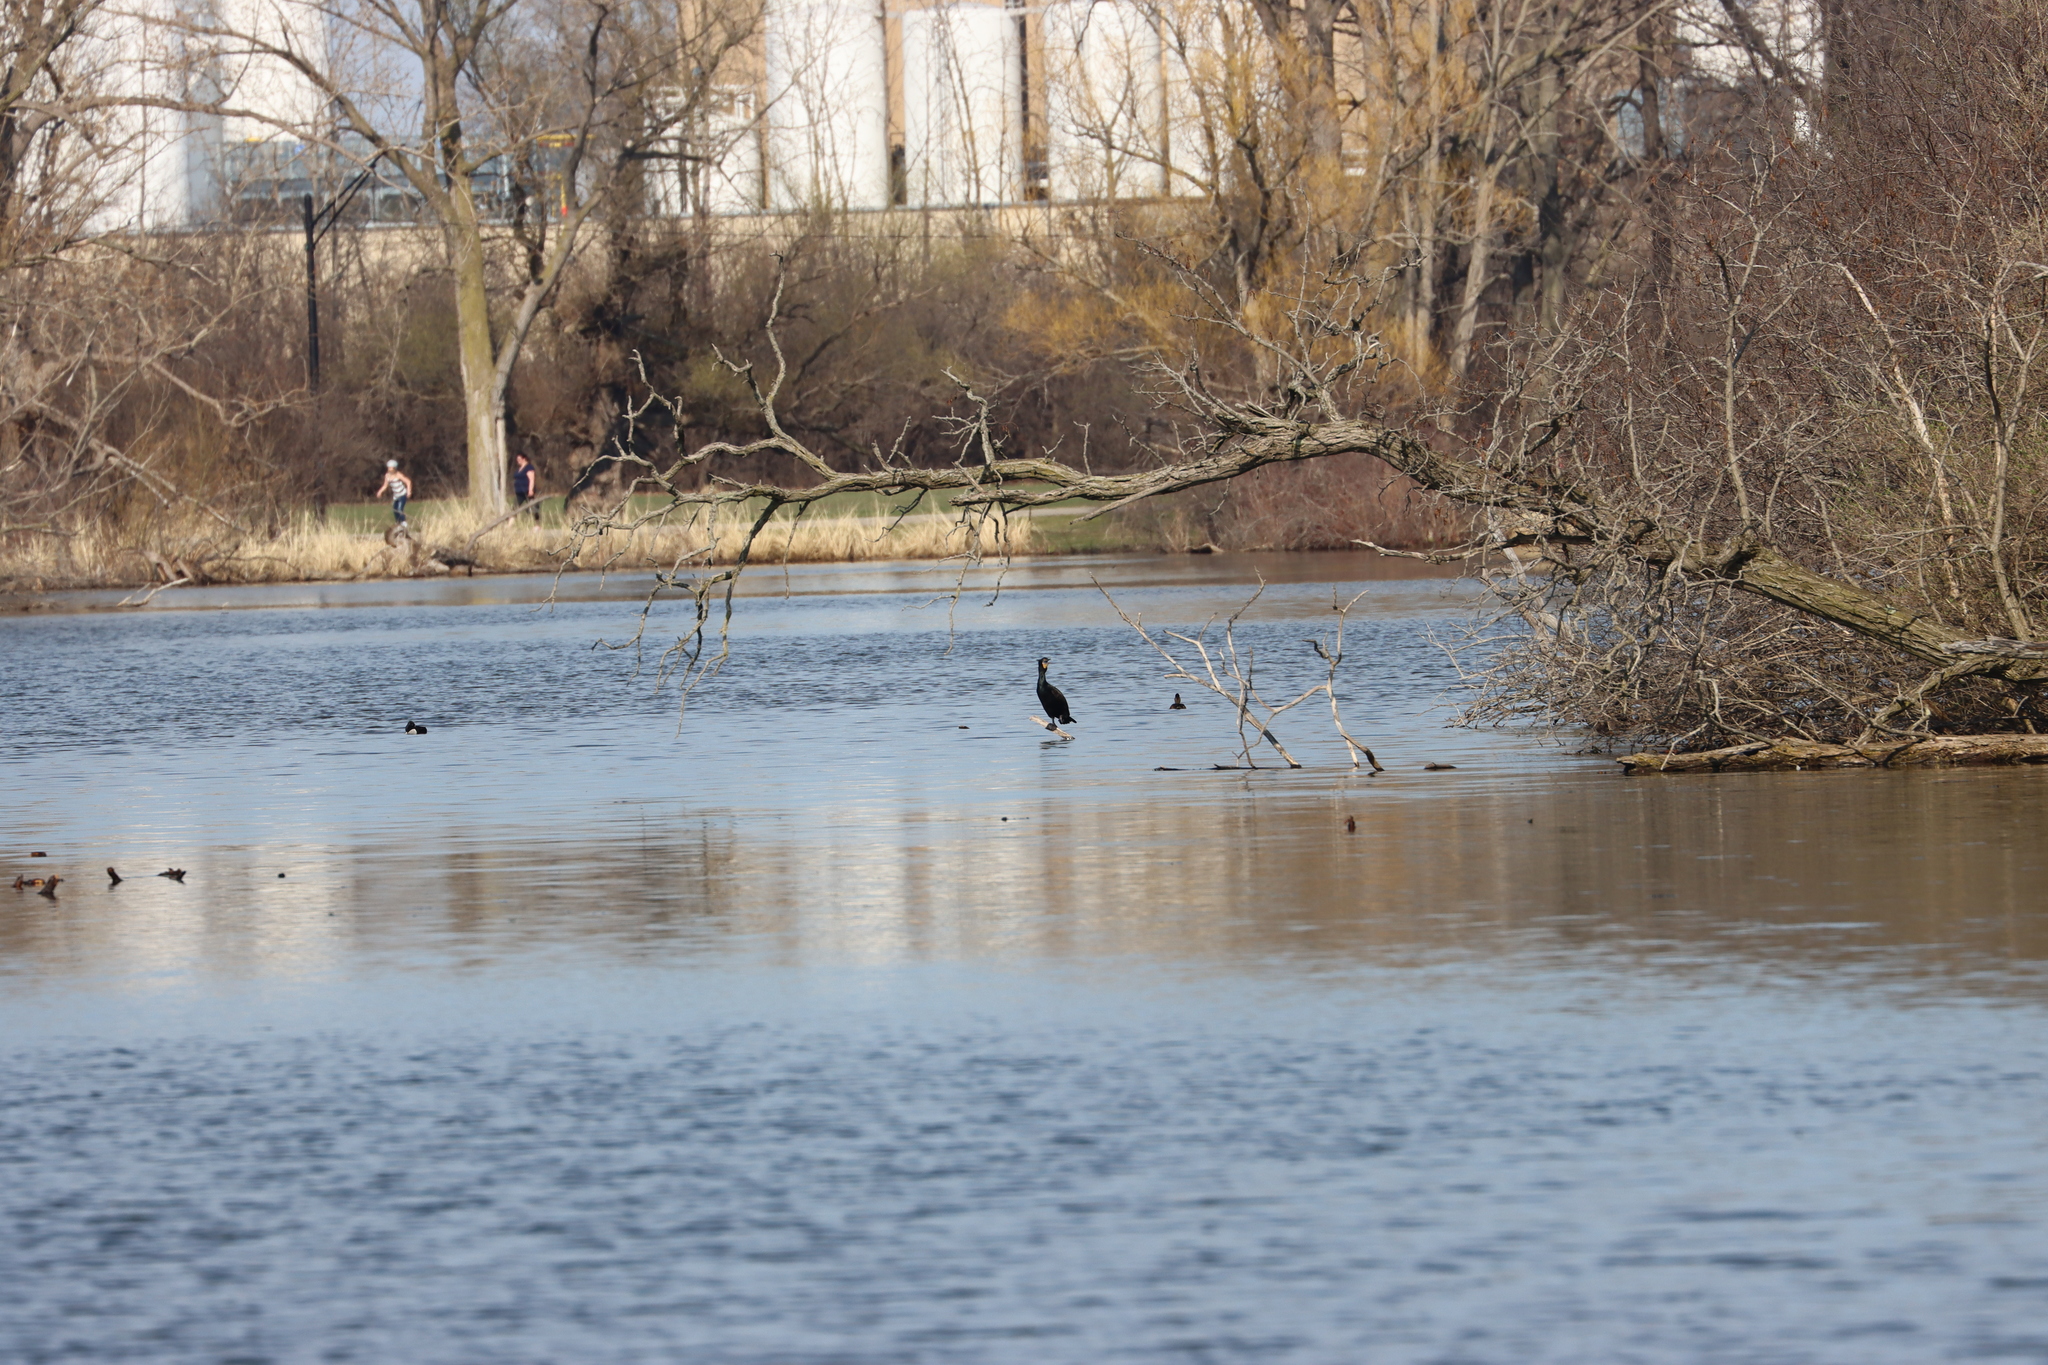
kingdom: Animalia
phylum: Chordata
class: Aves
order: Suliformes
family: Phalacrocoracidae
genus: Phalacrocorax
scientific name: Phalacrocorax auritus
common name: Double-crested cormorant
